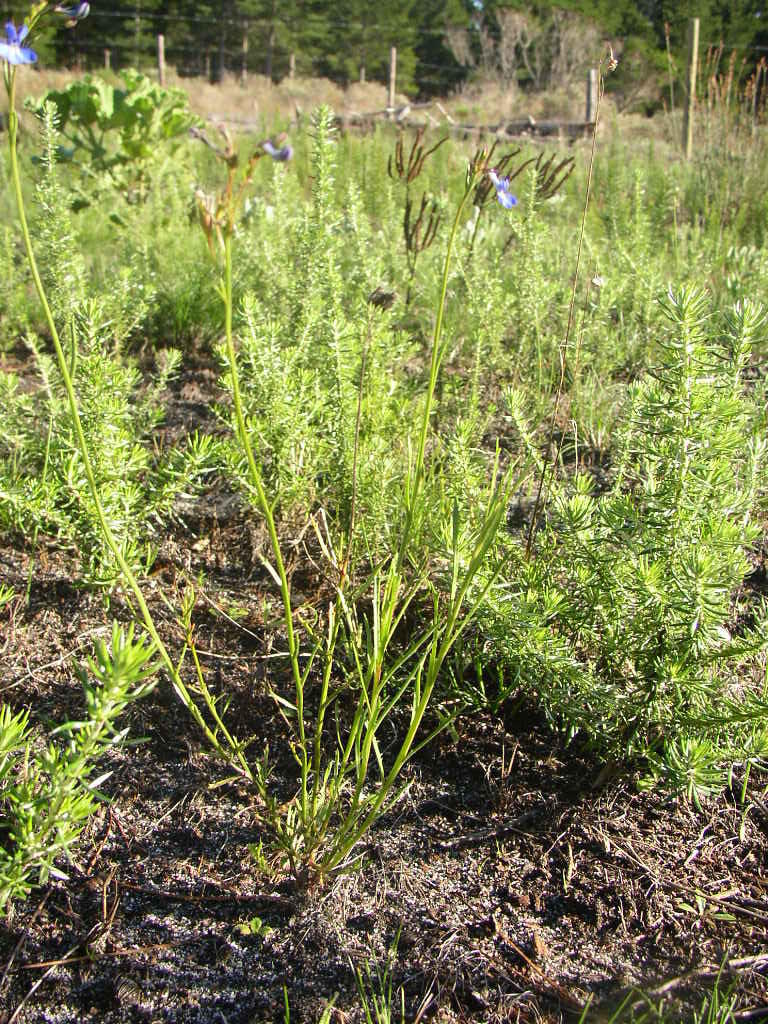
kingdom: Plantae
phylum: Tracheophyta
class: Magnoliopsida
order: Asterales
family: Campanulaceae
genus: Lobelia
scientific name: Lobelia comosa
